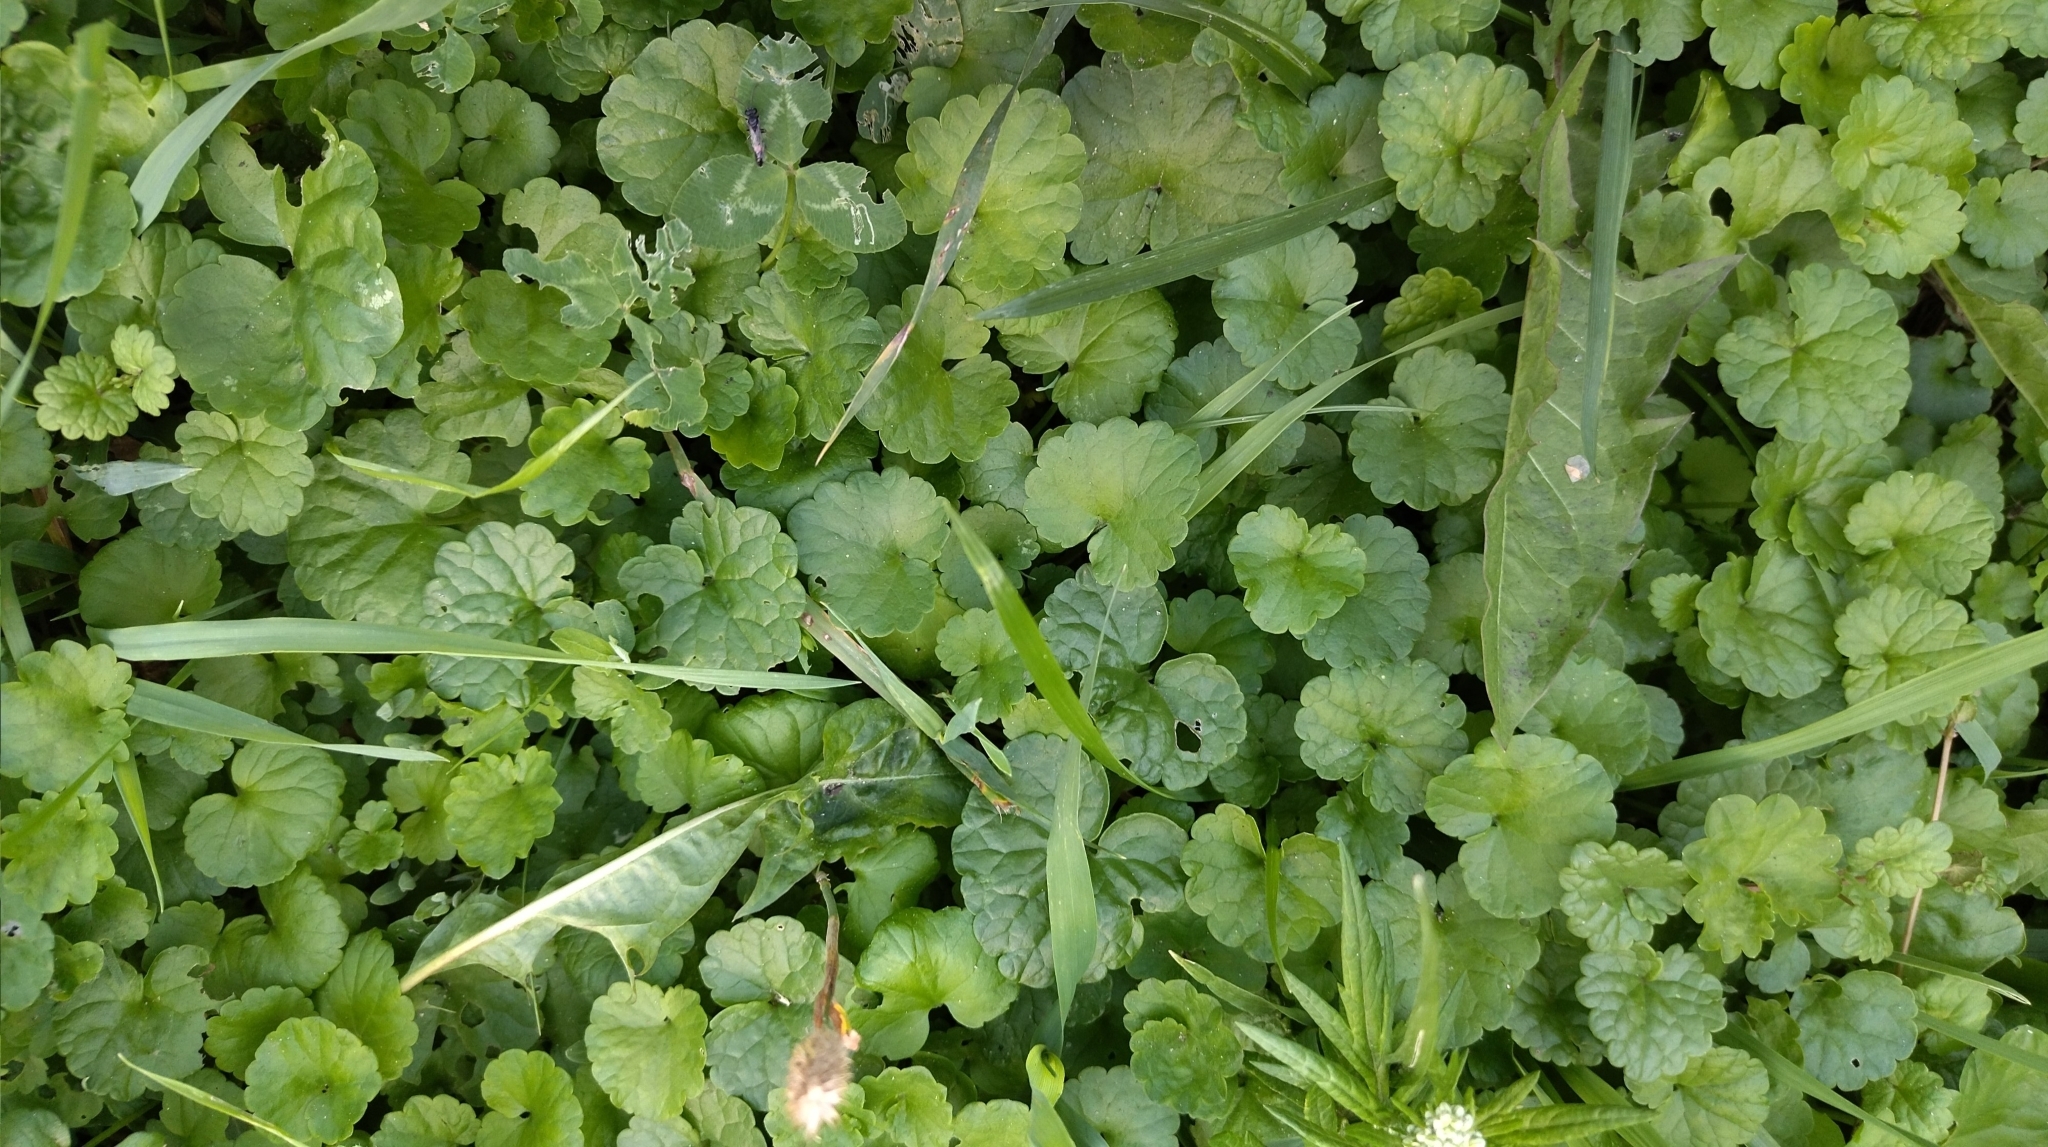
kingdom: Plantae
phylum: Tracheophyta
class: Magnoliopsida
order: Lamiales
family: Lamiaceae
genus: Glechoma
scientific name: Glechoma hederacea
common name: Ground ivy
